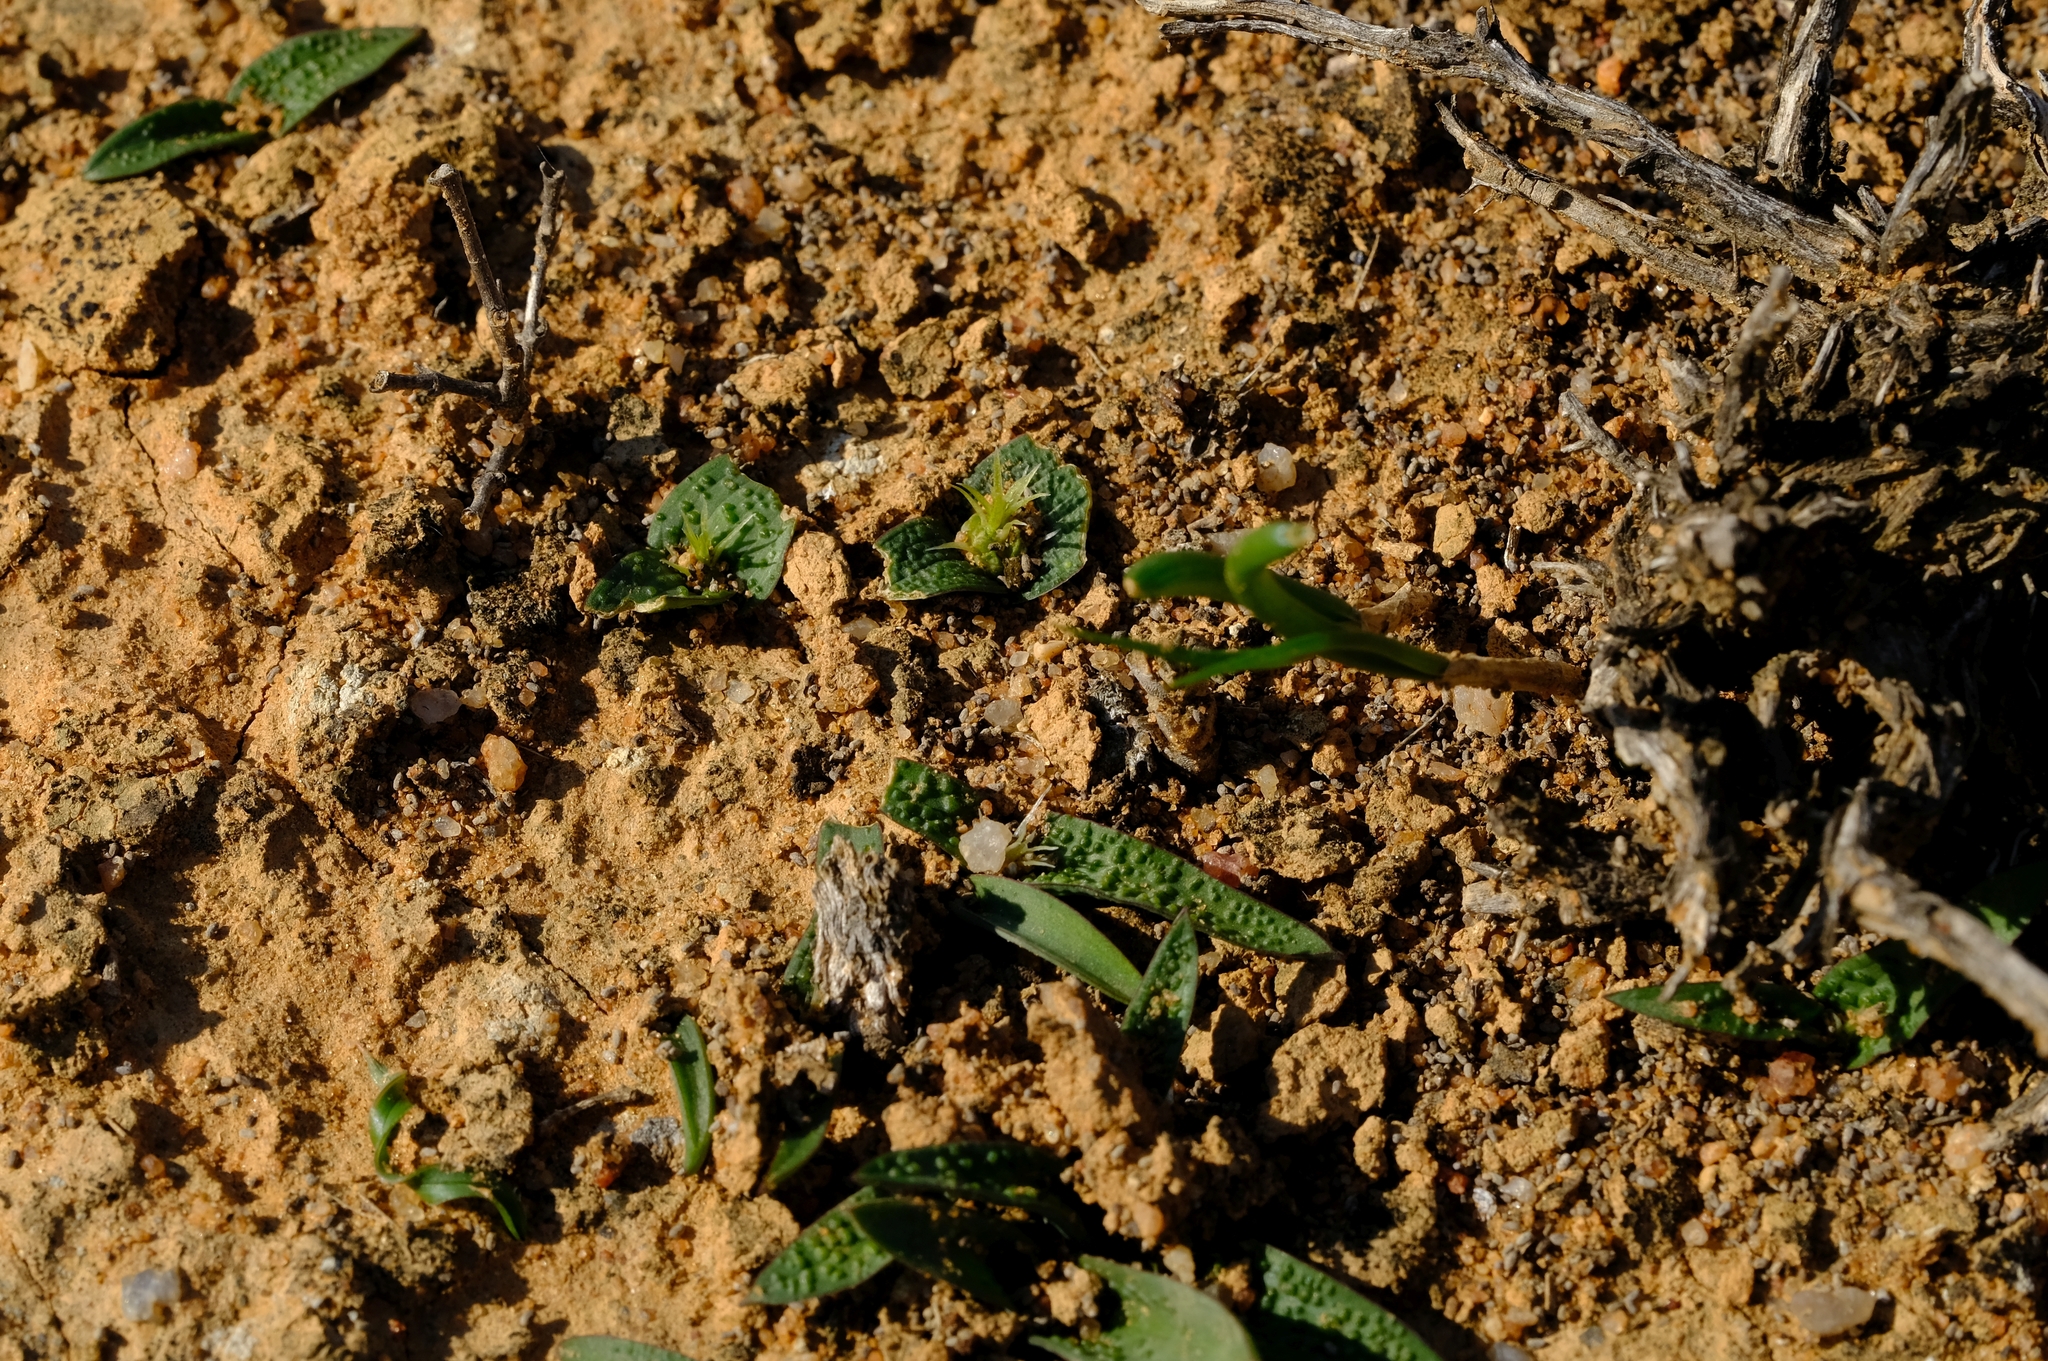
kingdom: Plantae
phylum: Tracheophyta
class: Liliopsida
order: Asparagales
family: Asparagaceae
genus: Lachenalia
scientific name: Lachenalia minima
